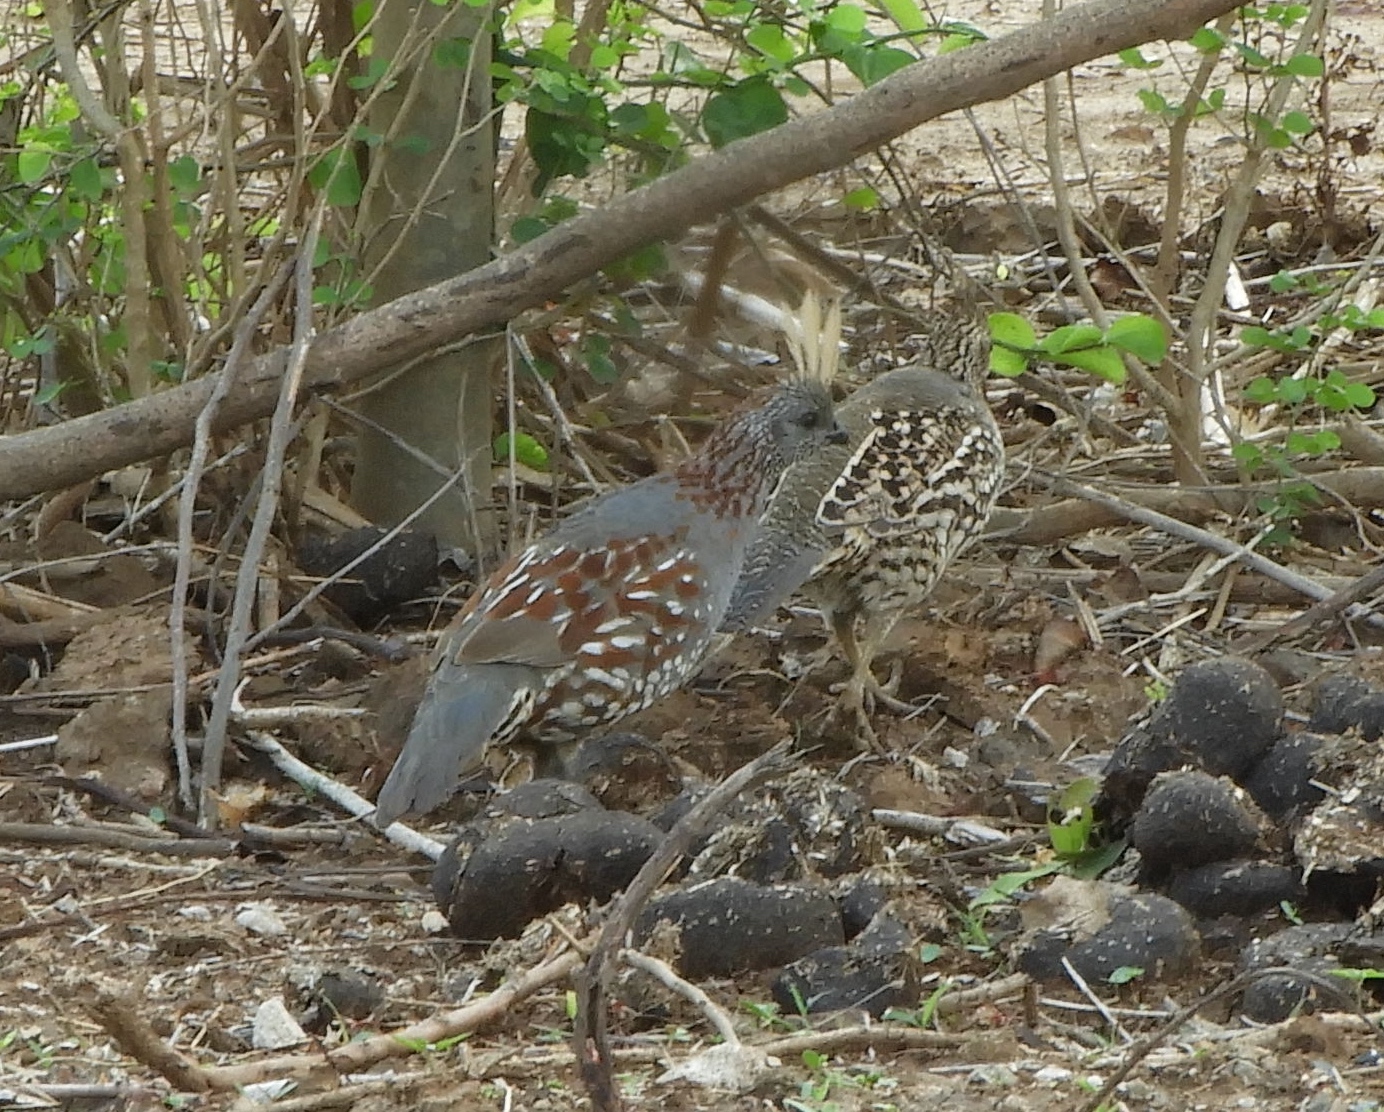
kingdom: Animalia
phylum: Chordata
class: Aves
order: Galliformes
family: Odontophoridae
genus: Callipepla
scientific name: Callipepla douglasii
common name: Elegant quail
